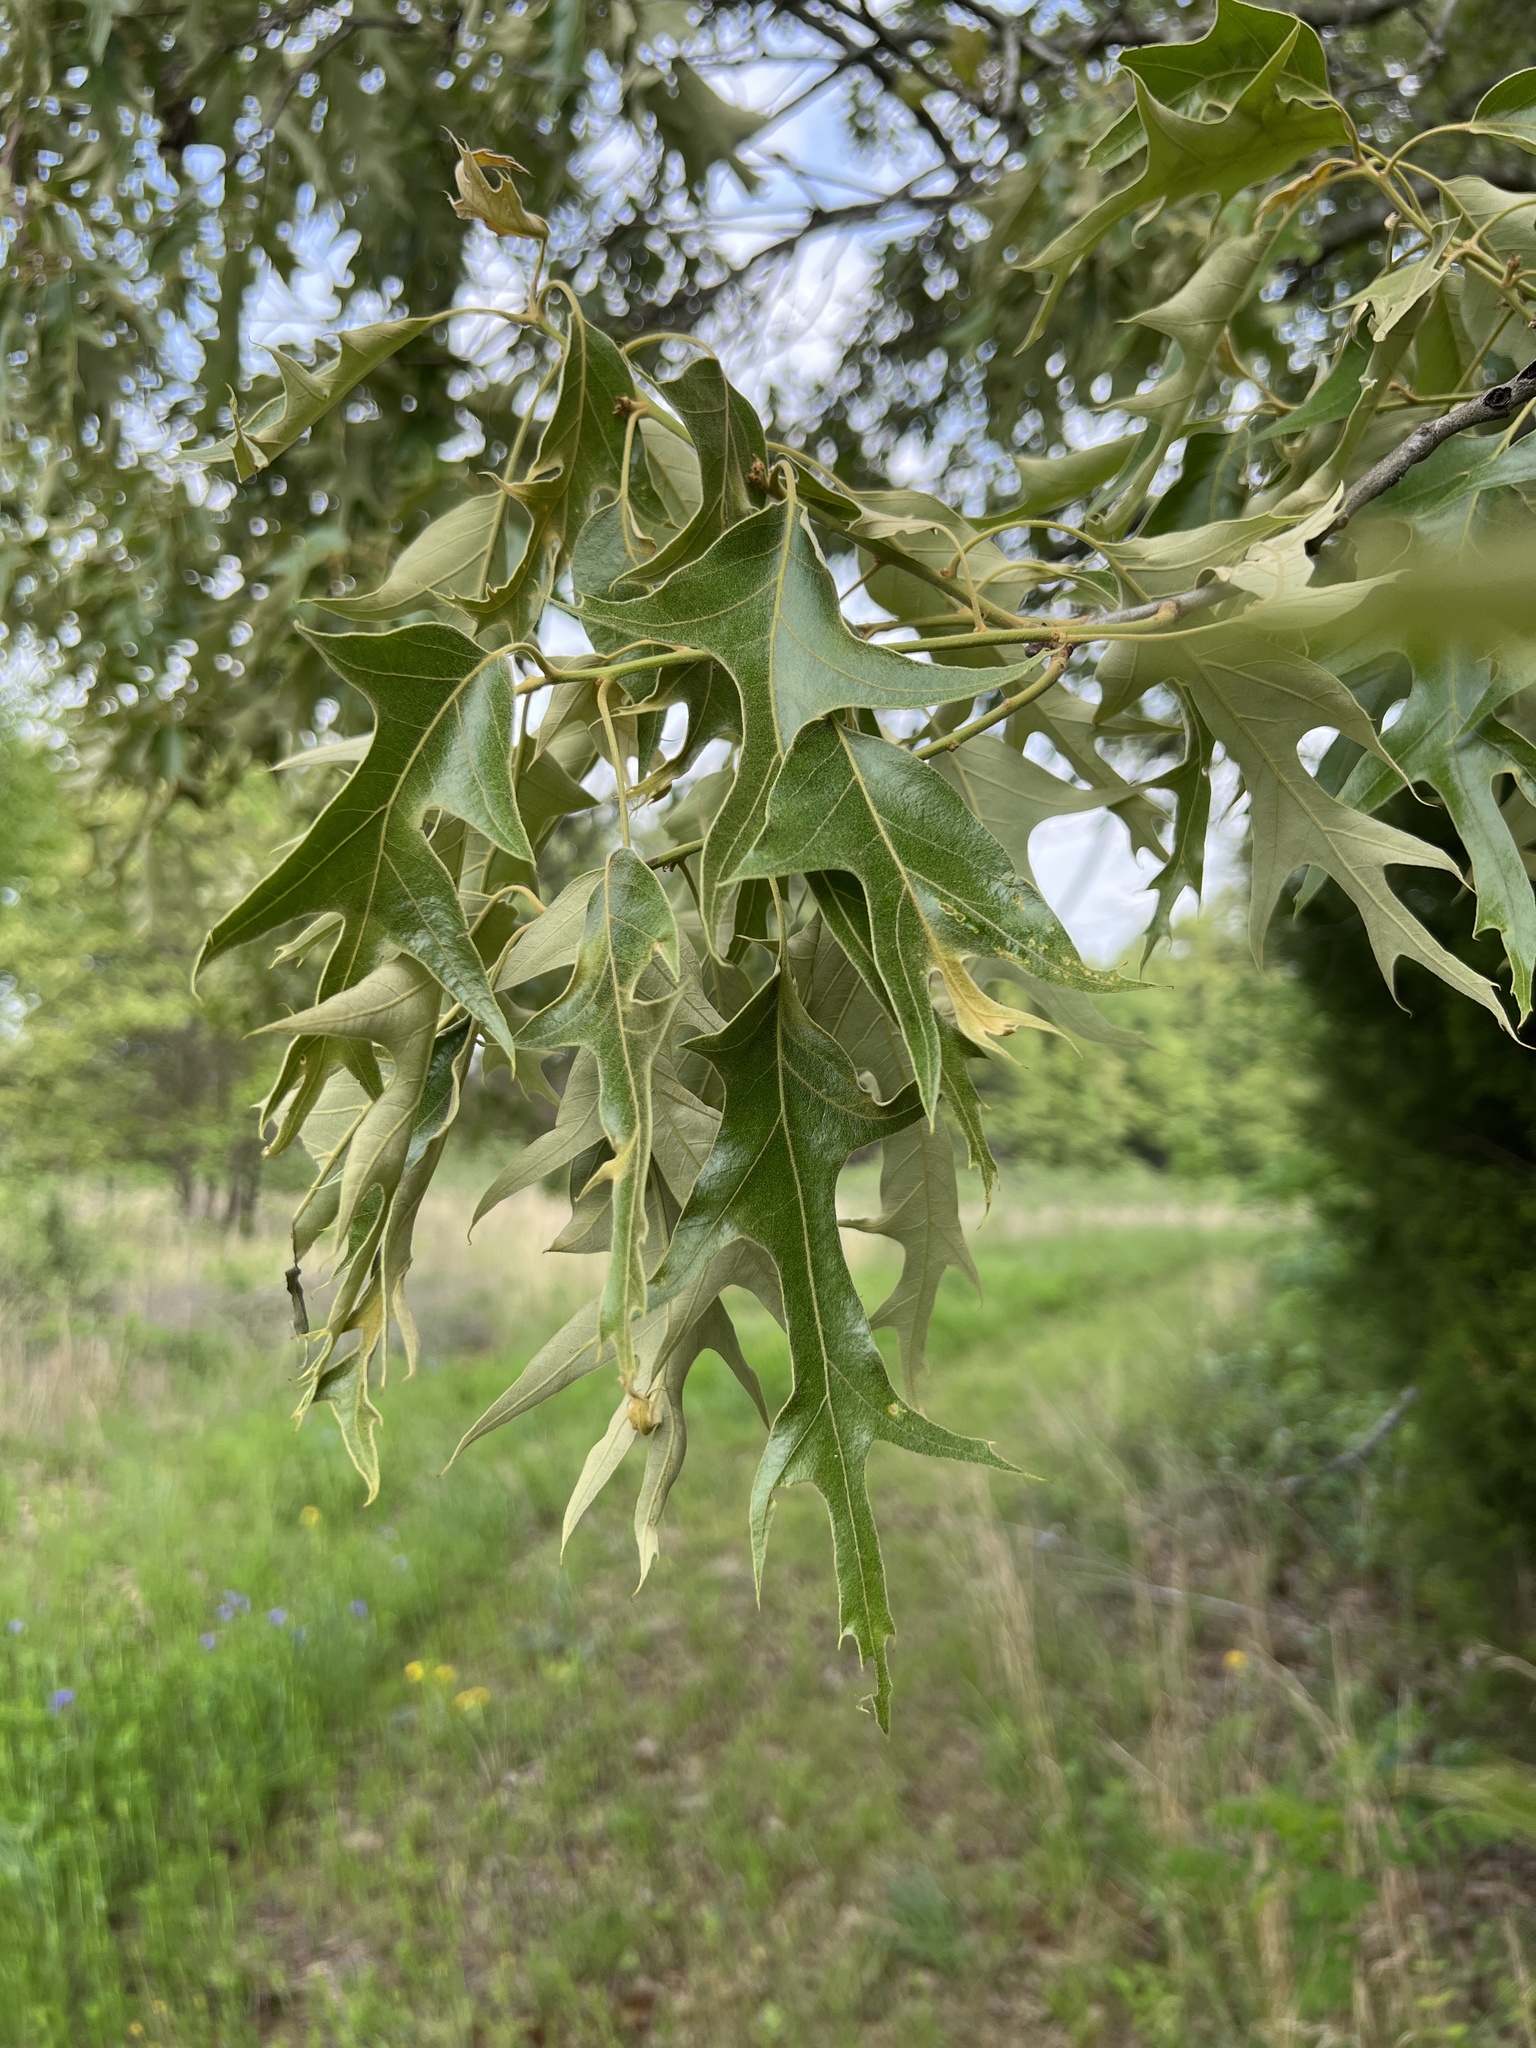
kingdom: Plantae
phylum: Tracheophyta
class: Magnoliopsida
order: Fagales
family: Fagaceae
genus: Quercus
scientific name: Quercus falcata
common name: Southern red oak
